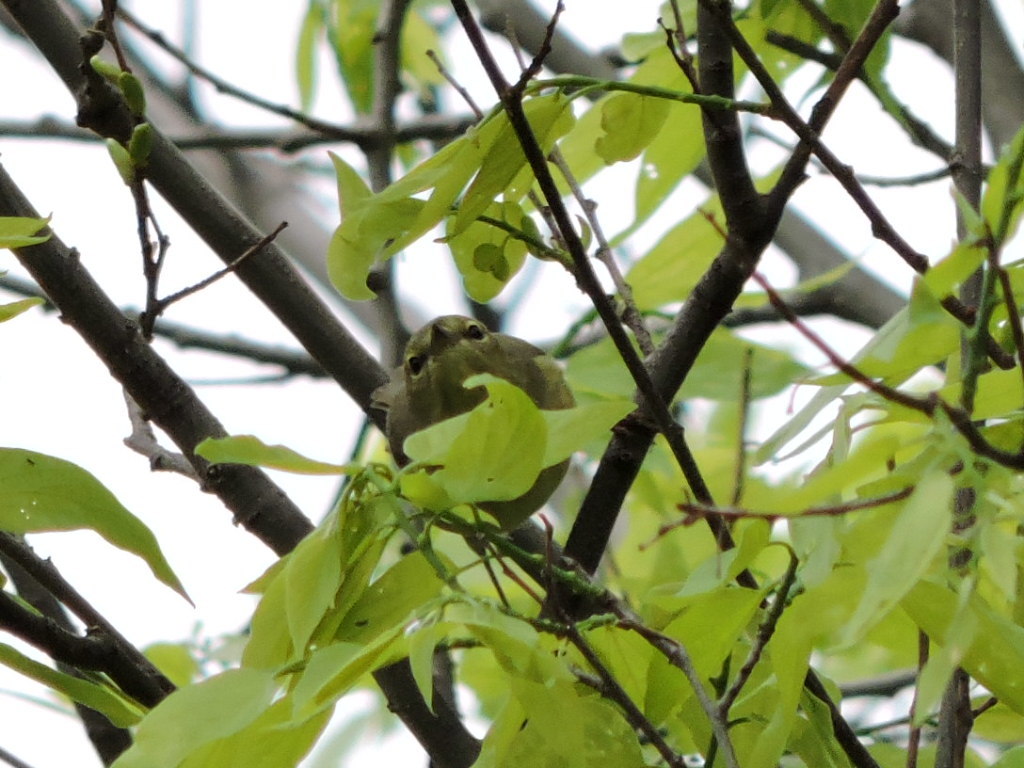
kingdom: Animalia
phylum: Chordata
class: Aves
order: Passeriformes
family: Regulidae
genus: Regulus
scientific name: Regulus calendula
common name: Ruby-crowned kinglet
